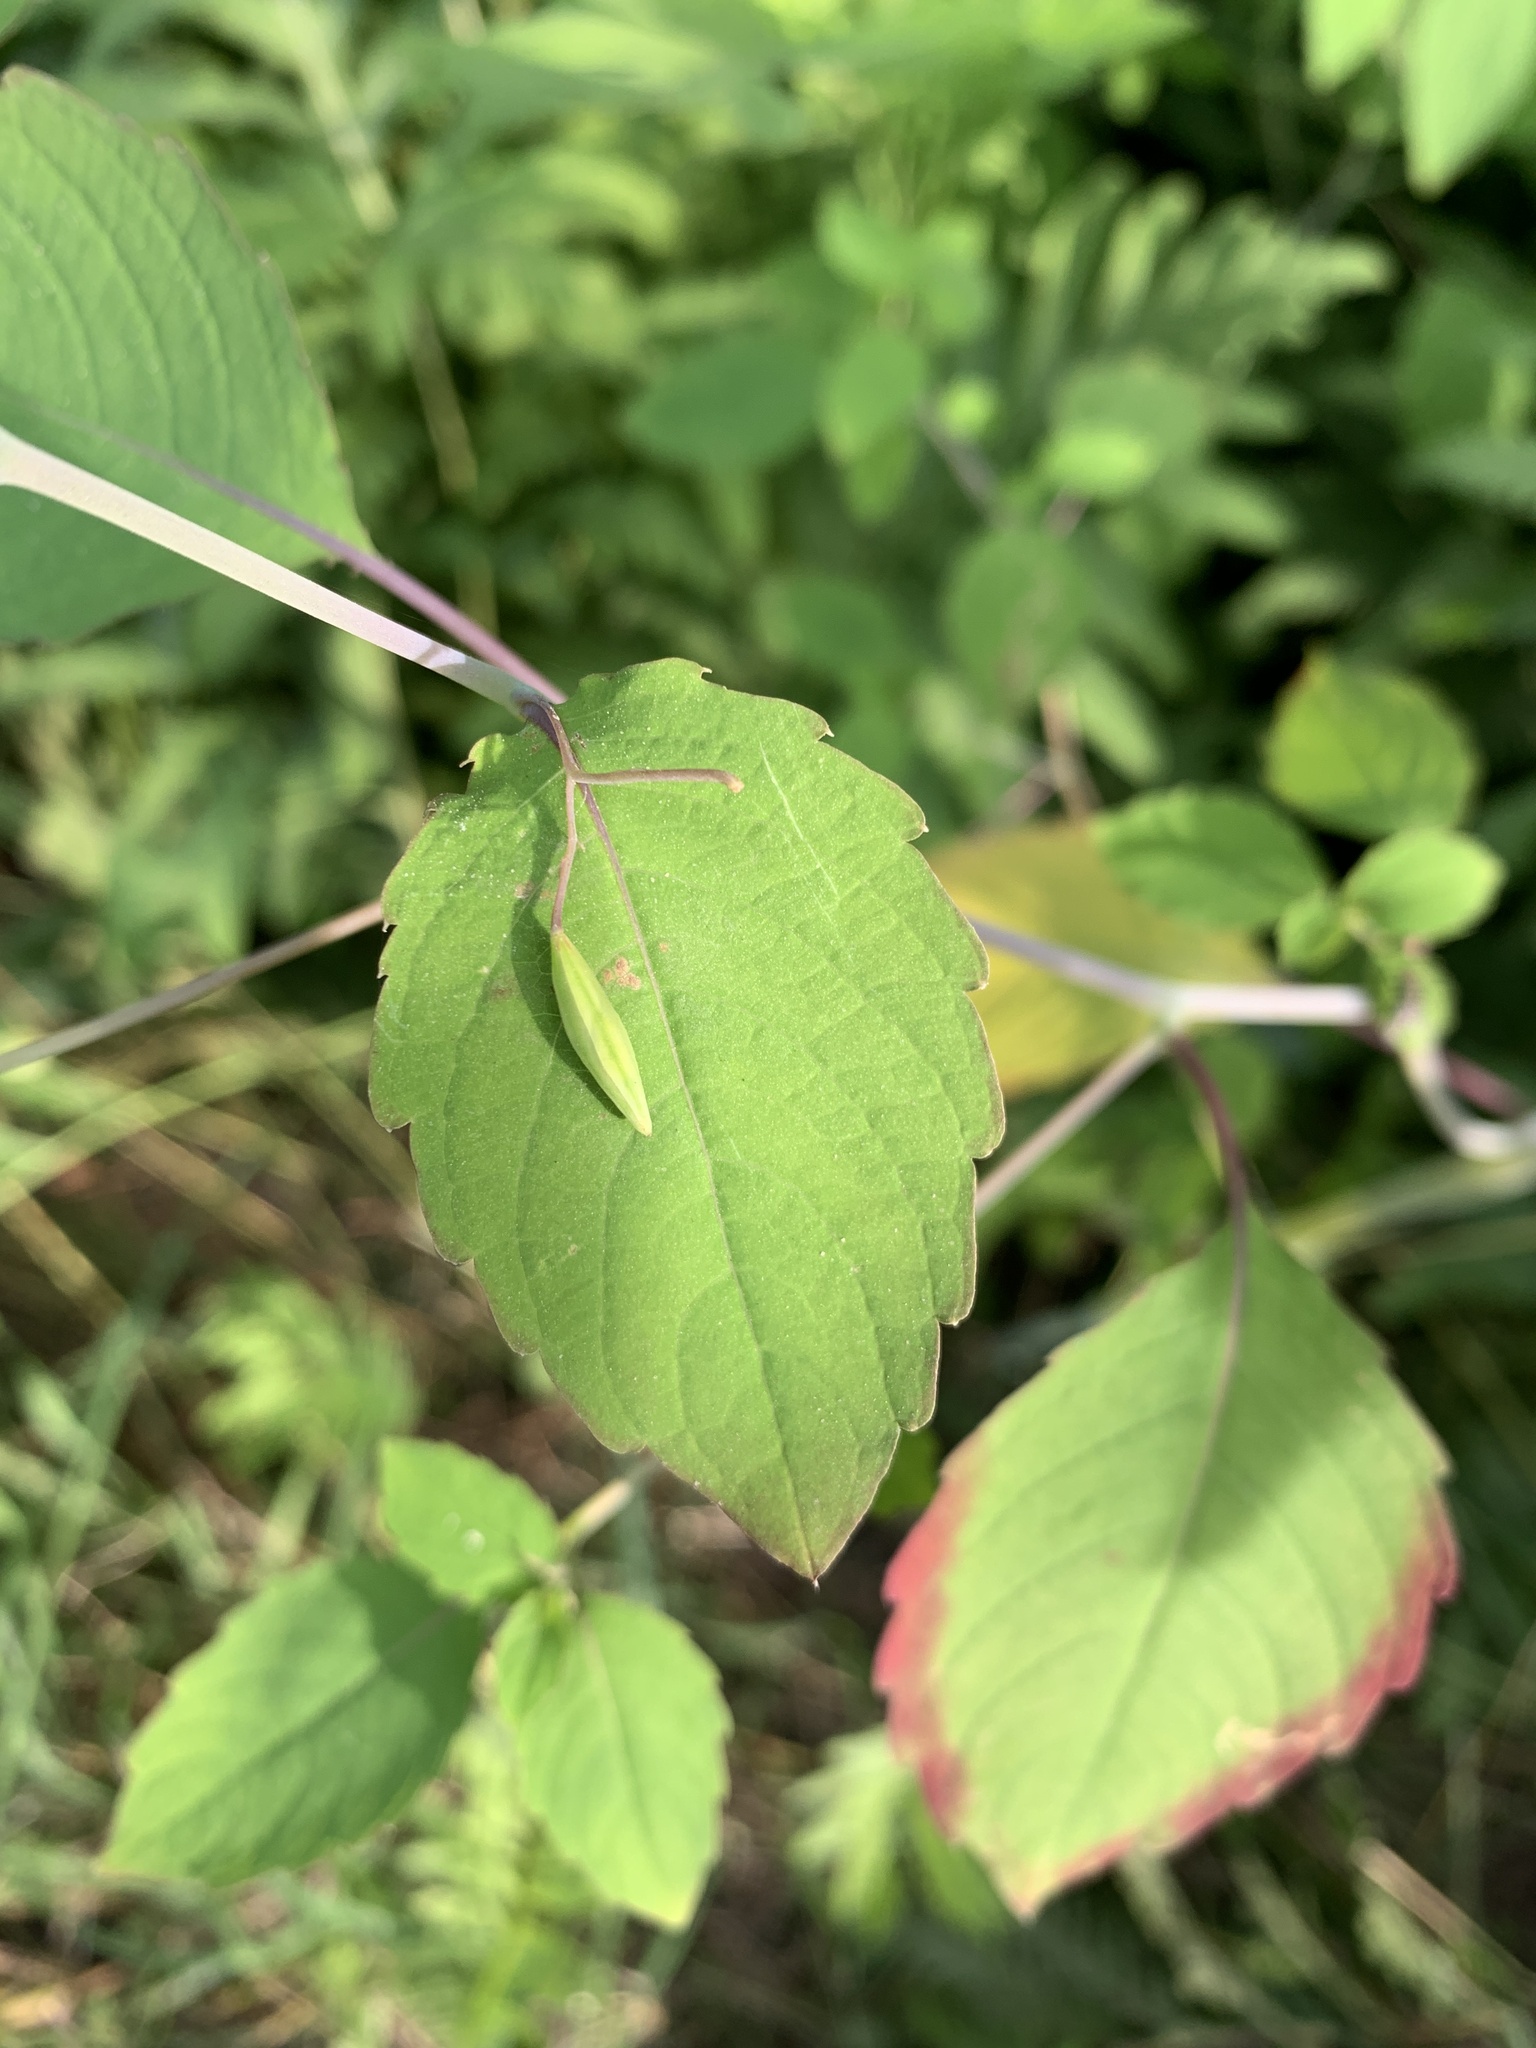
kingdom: Plantae
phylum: Tracheophyta
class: Magnoliopsida
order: Ericales
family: Balsaminaceae
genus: Impatiens
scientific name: Impatiens capensis
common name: Orange balsam
